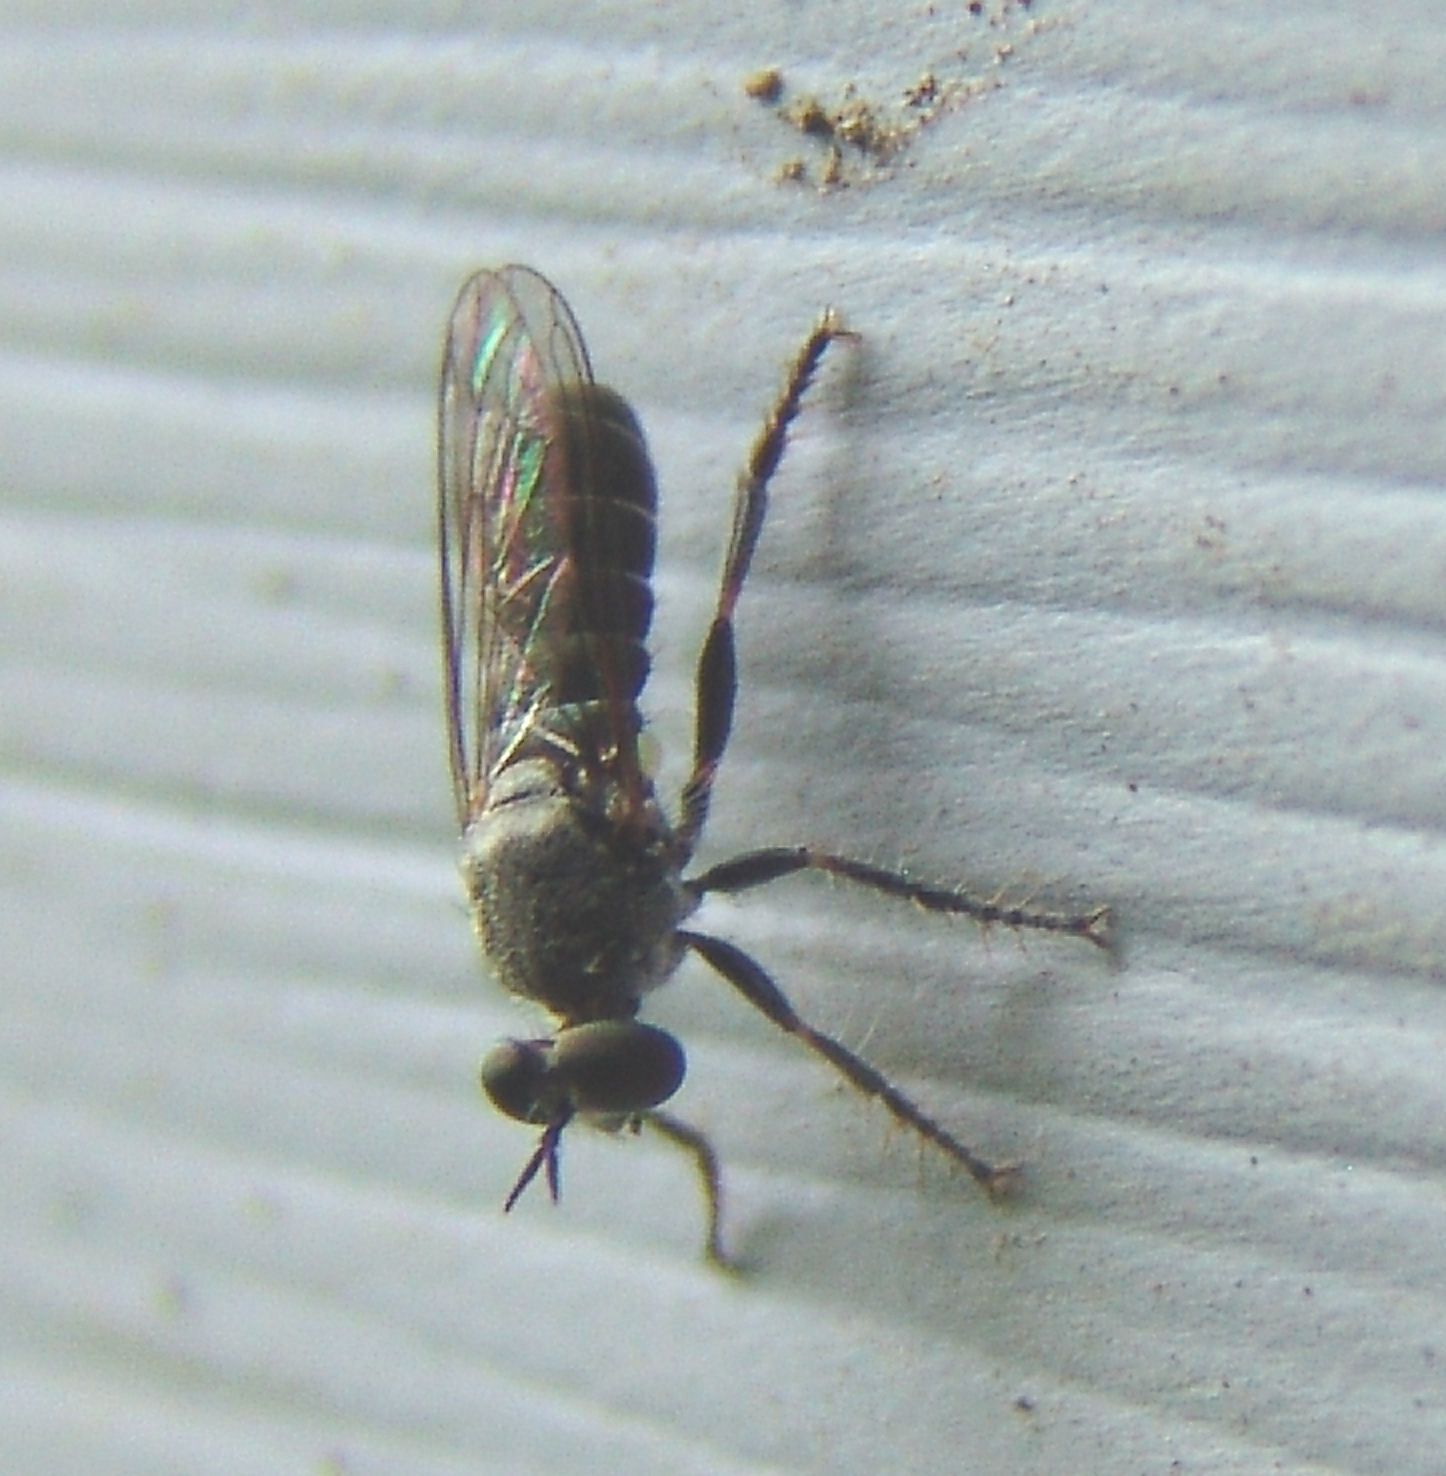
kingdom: Animalia
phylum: Arthropoda
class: Insecta
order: Diptera
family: Asilidae
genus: Atomosia
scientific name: Atomosia puella
